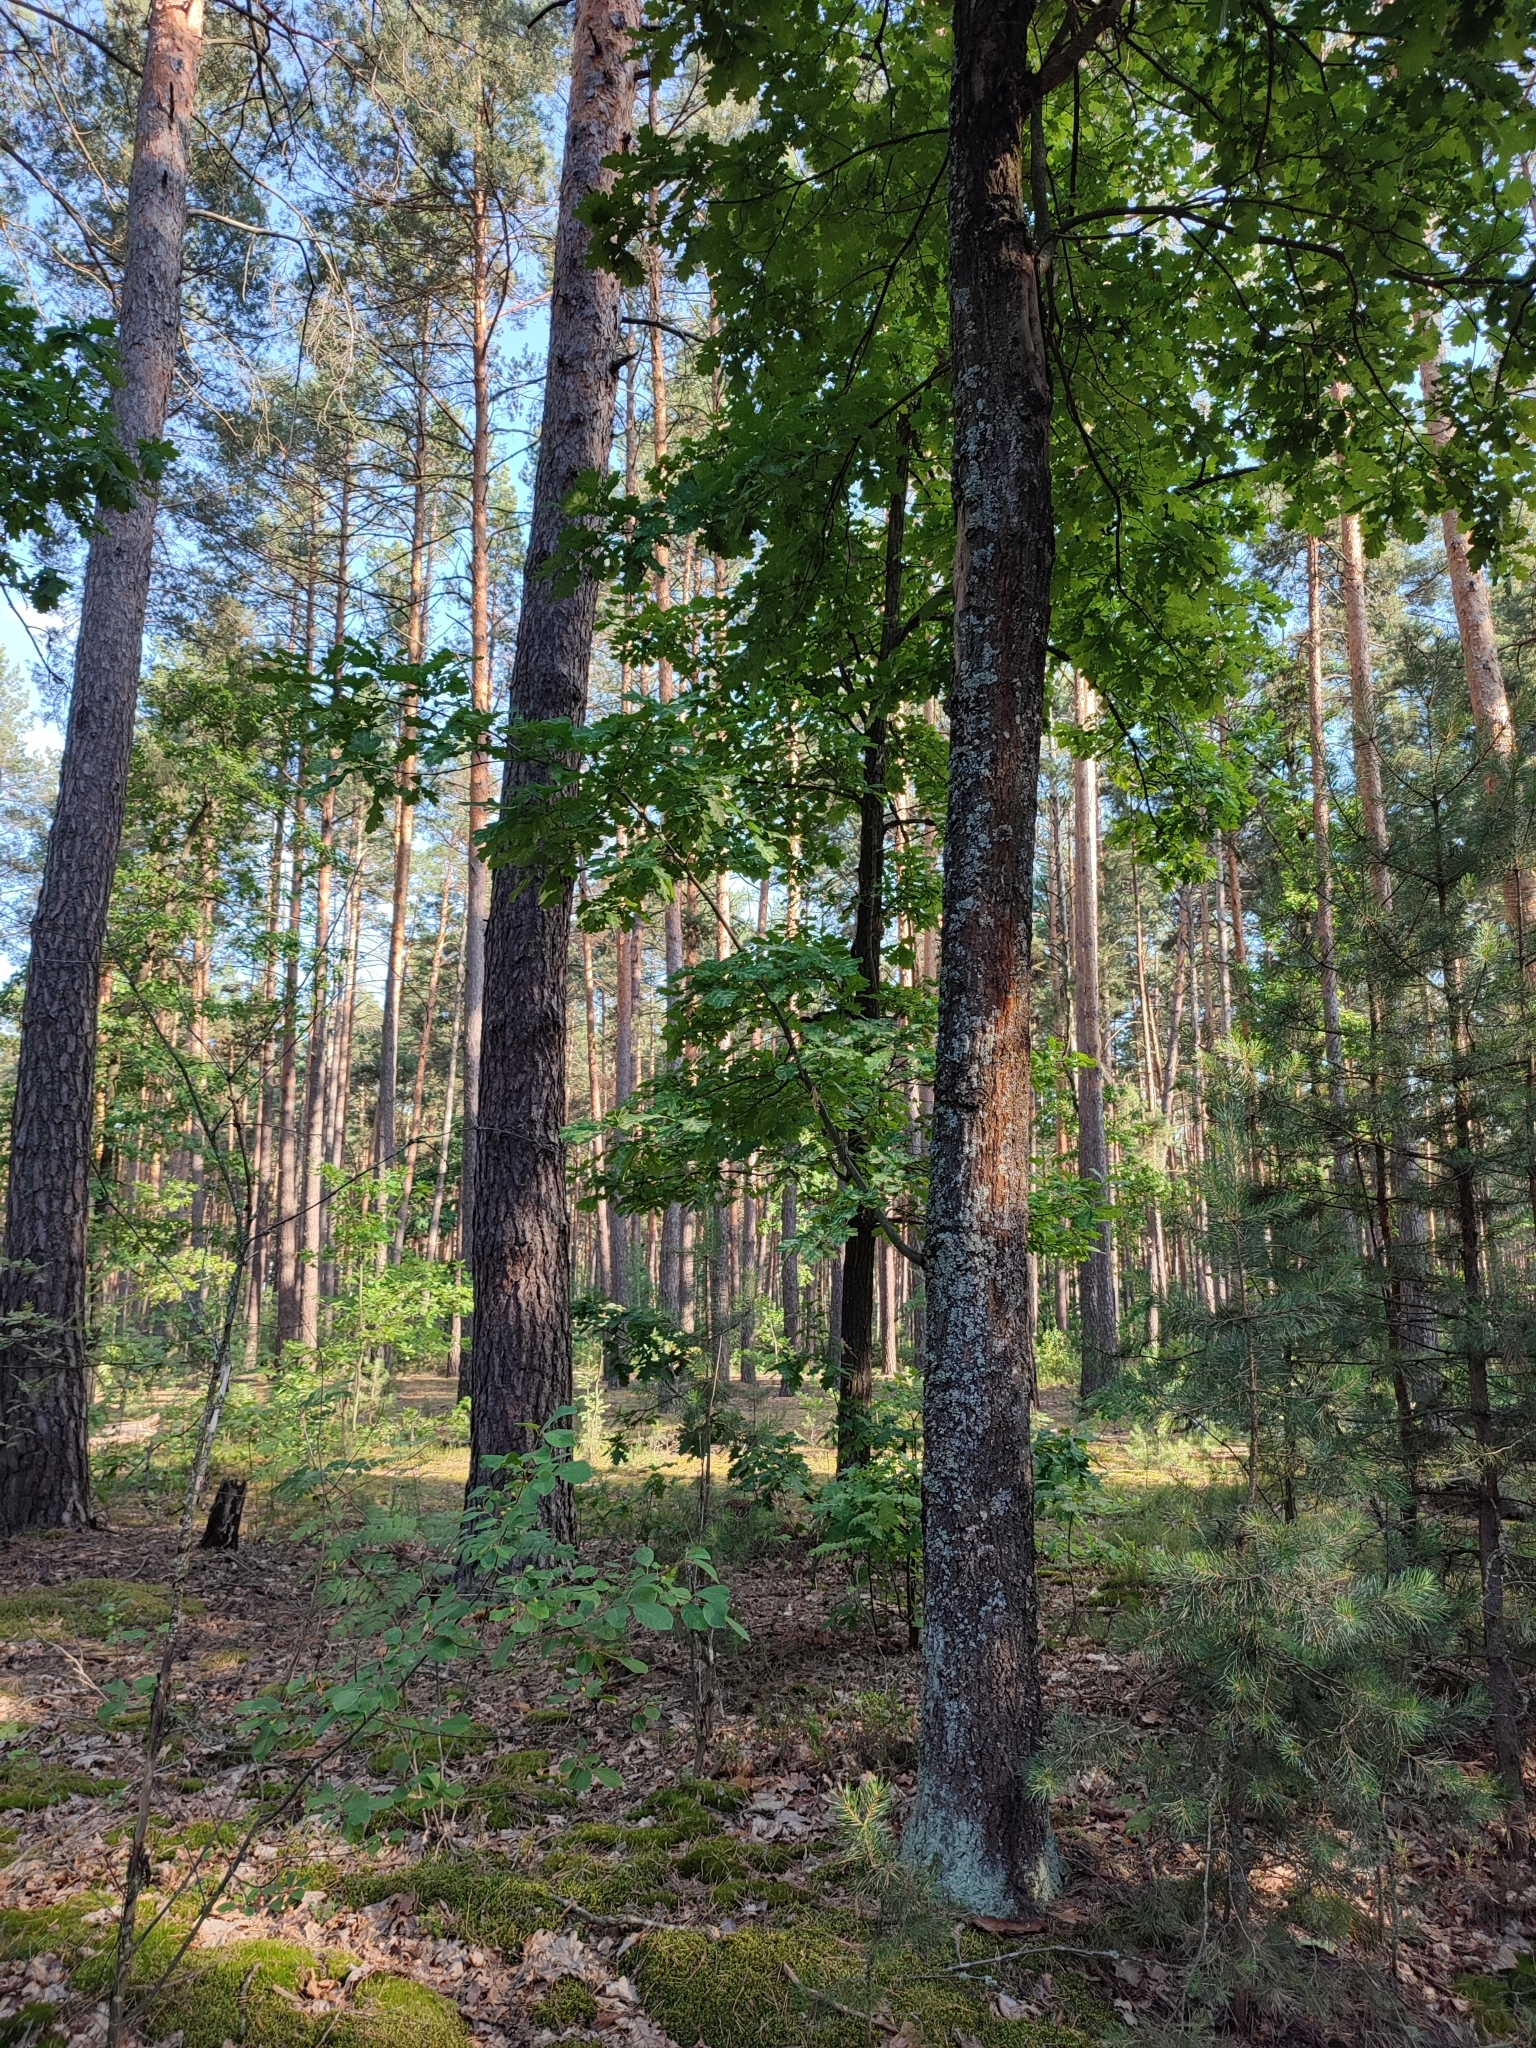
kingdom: Plantae
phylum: Tracheophyta
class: Magnoliopsida
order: Fagales
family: Fagaceae
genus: Quercus
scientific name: Quercus robur
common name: Pedunculate oak
